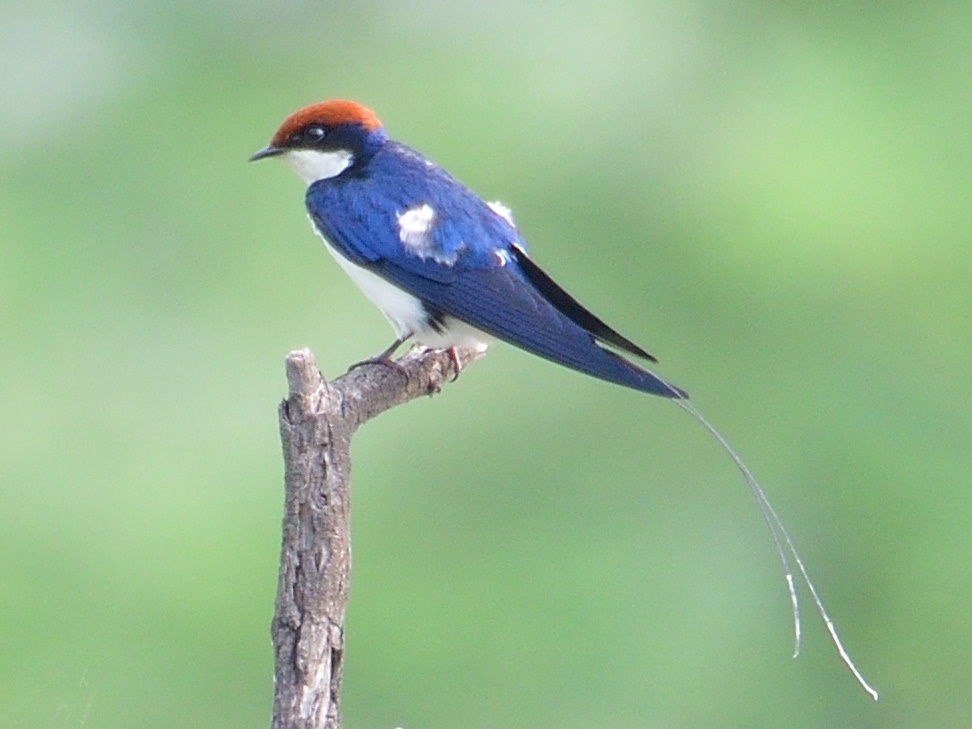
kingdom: Animalia
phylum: Chordata
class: Aves
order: Passeriformes
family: Hirundinidae
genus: Hirundo
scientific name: Hirundo smithii
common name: Wire-tailed swallow
